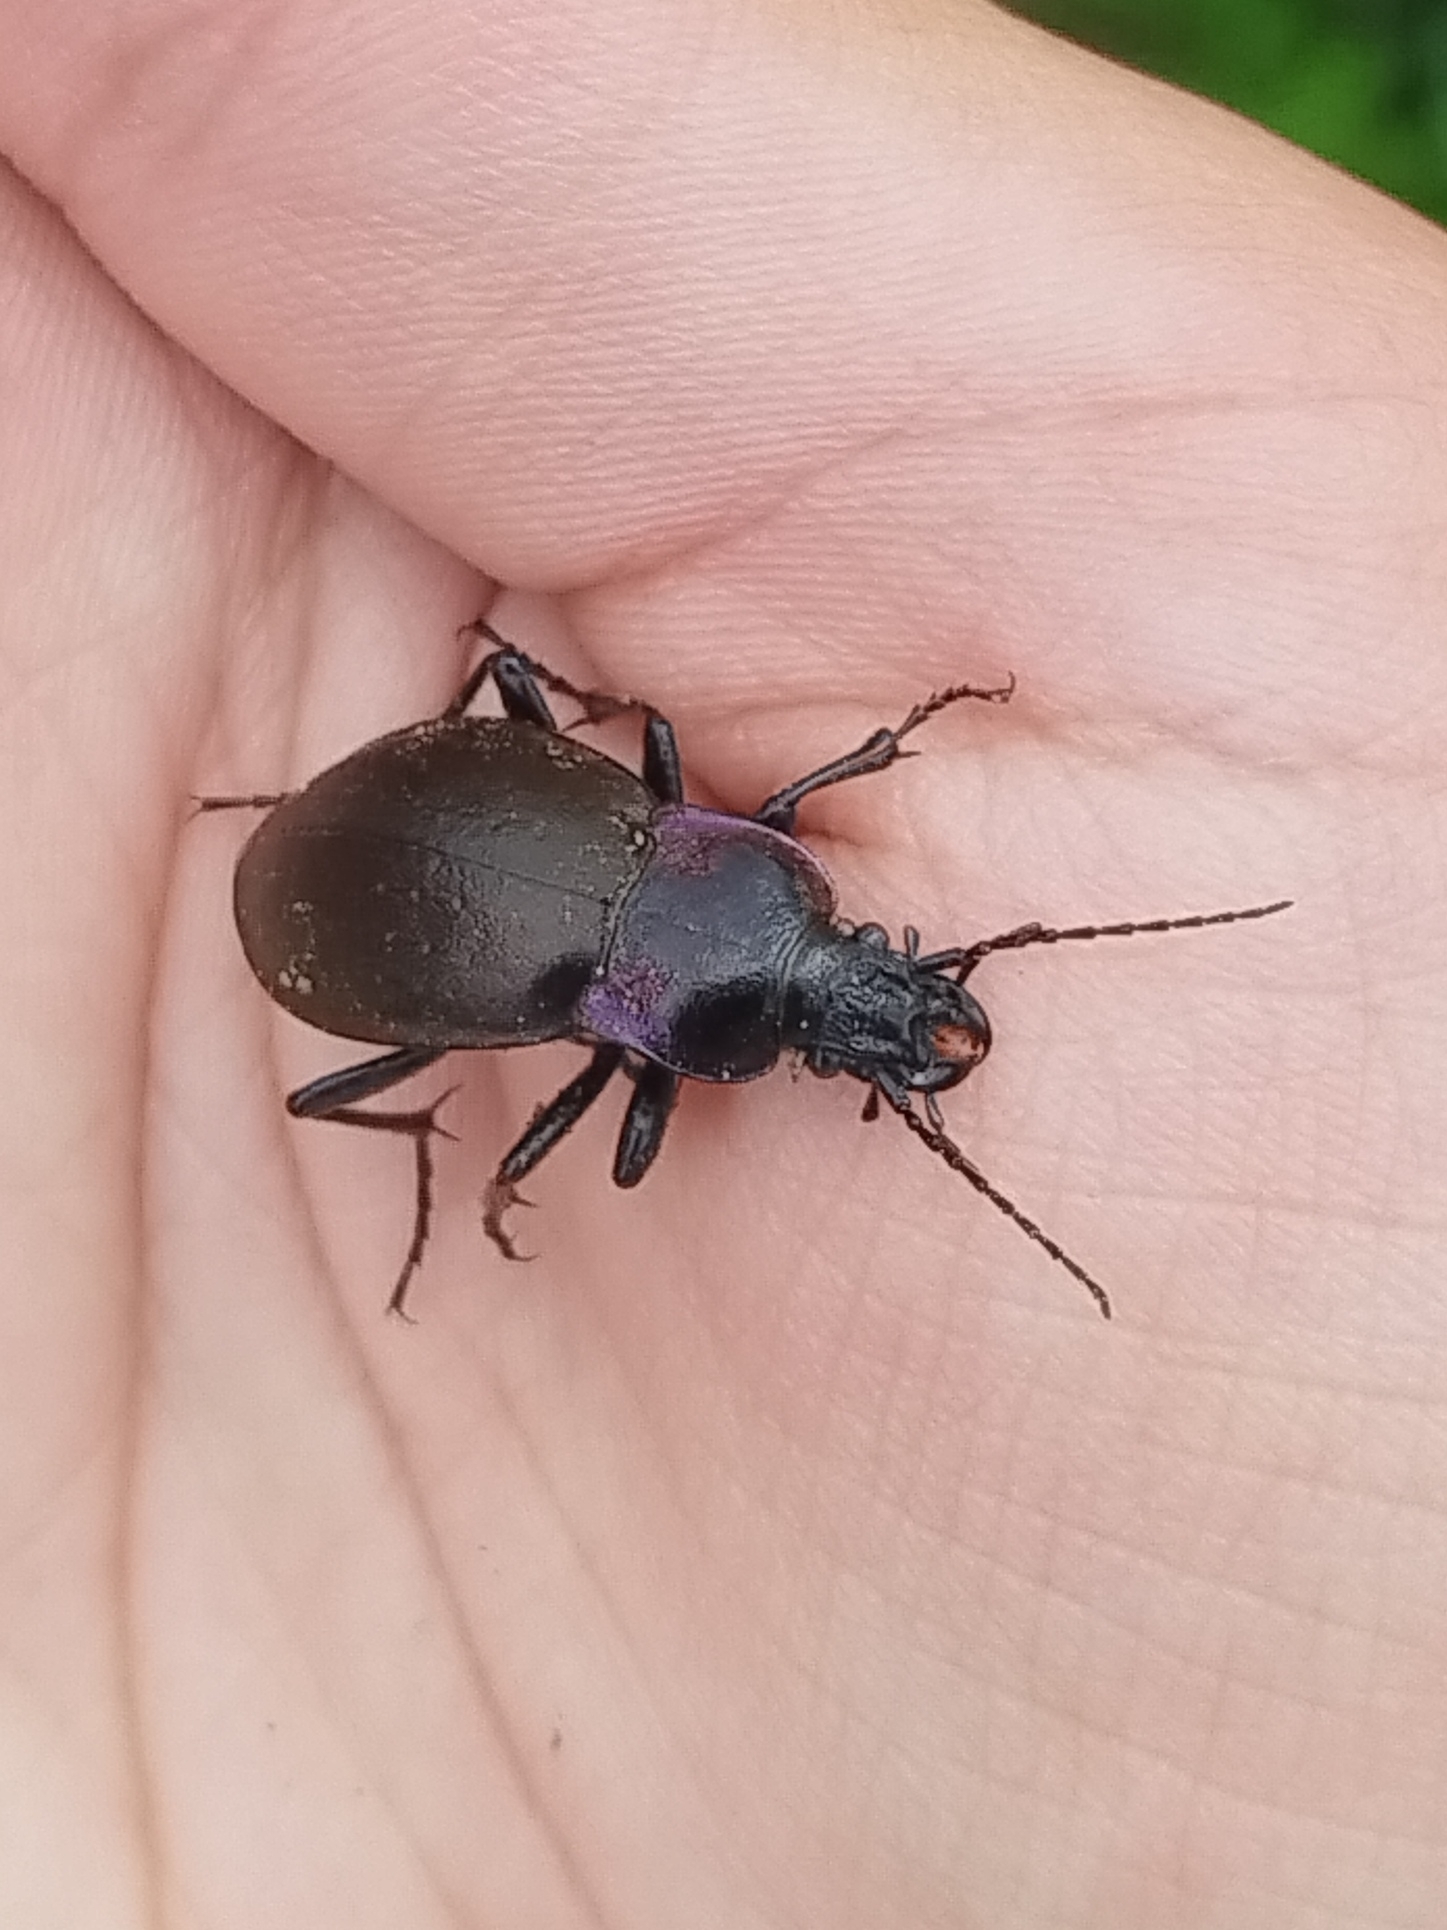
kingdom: Animalia
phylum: Arthropoda
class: Insecta
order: Coleoptera
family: Carabidae
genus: Carabus
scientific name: Carabus nemoralis
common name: European ground beetle
